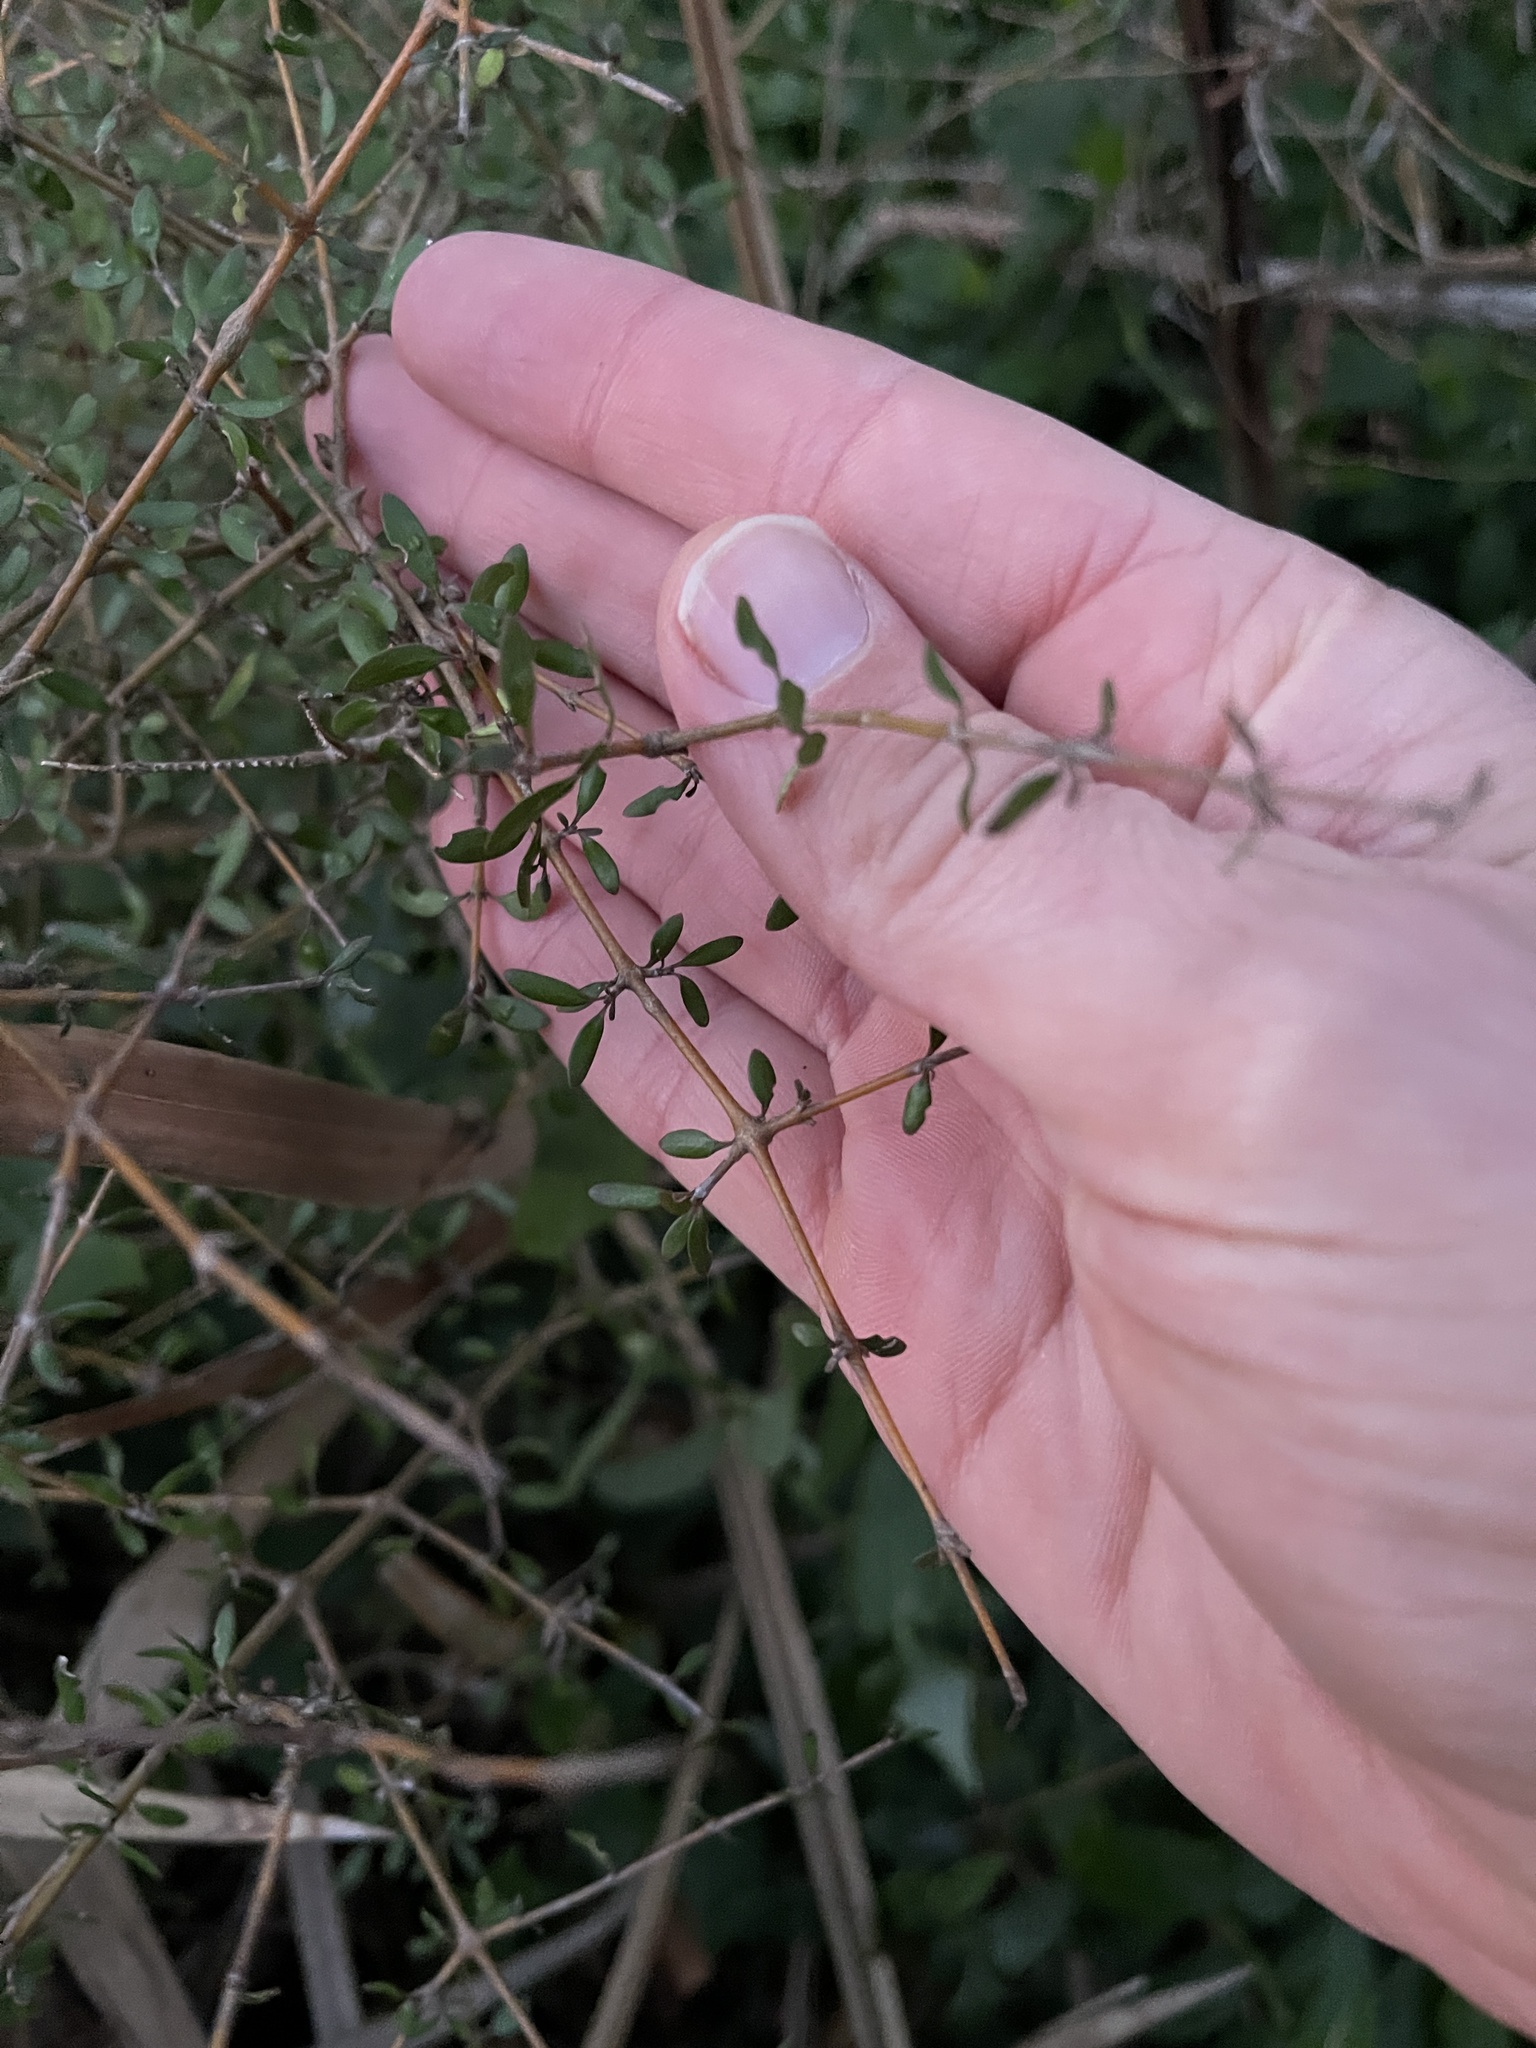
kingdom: Plantae
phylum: Tracheophyta
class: Magnoliopsida
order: Gentianales
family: Rubiaceae
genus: Coprosma
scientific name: Coprosma propinqua
